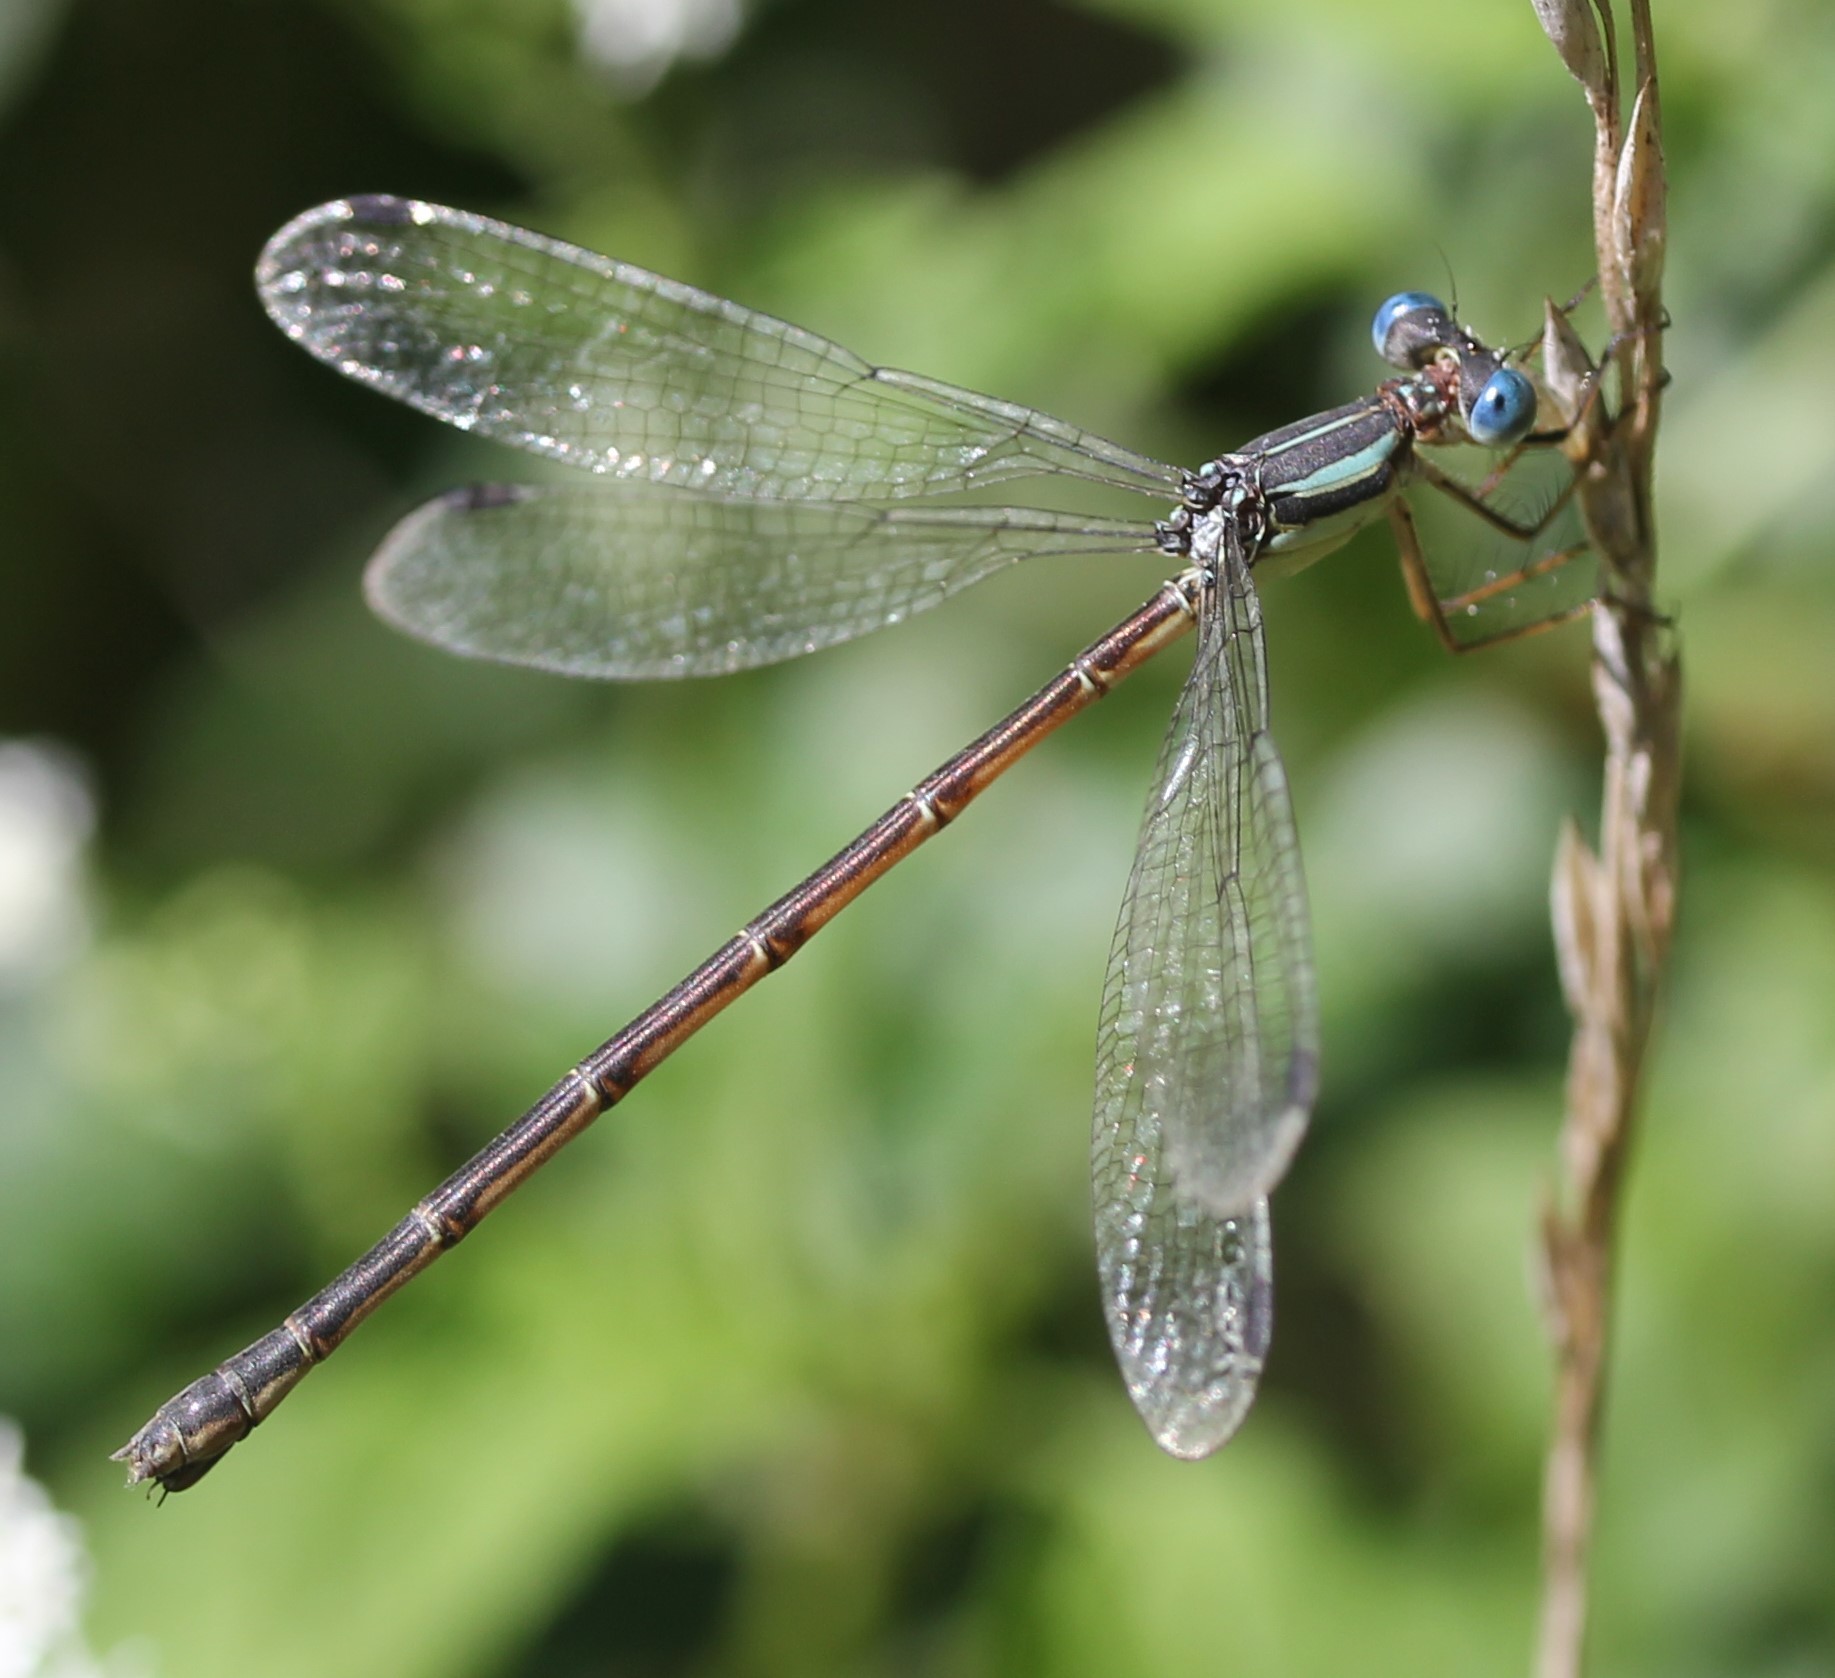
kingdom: Animalia
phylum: Arthropoda
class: Insecta
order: Odonata
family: Lestidae
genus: Lestes
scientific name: Lestes rectangularis
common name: Slender spreadwing
